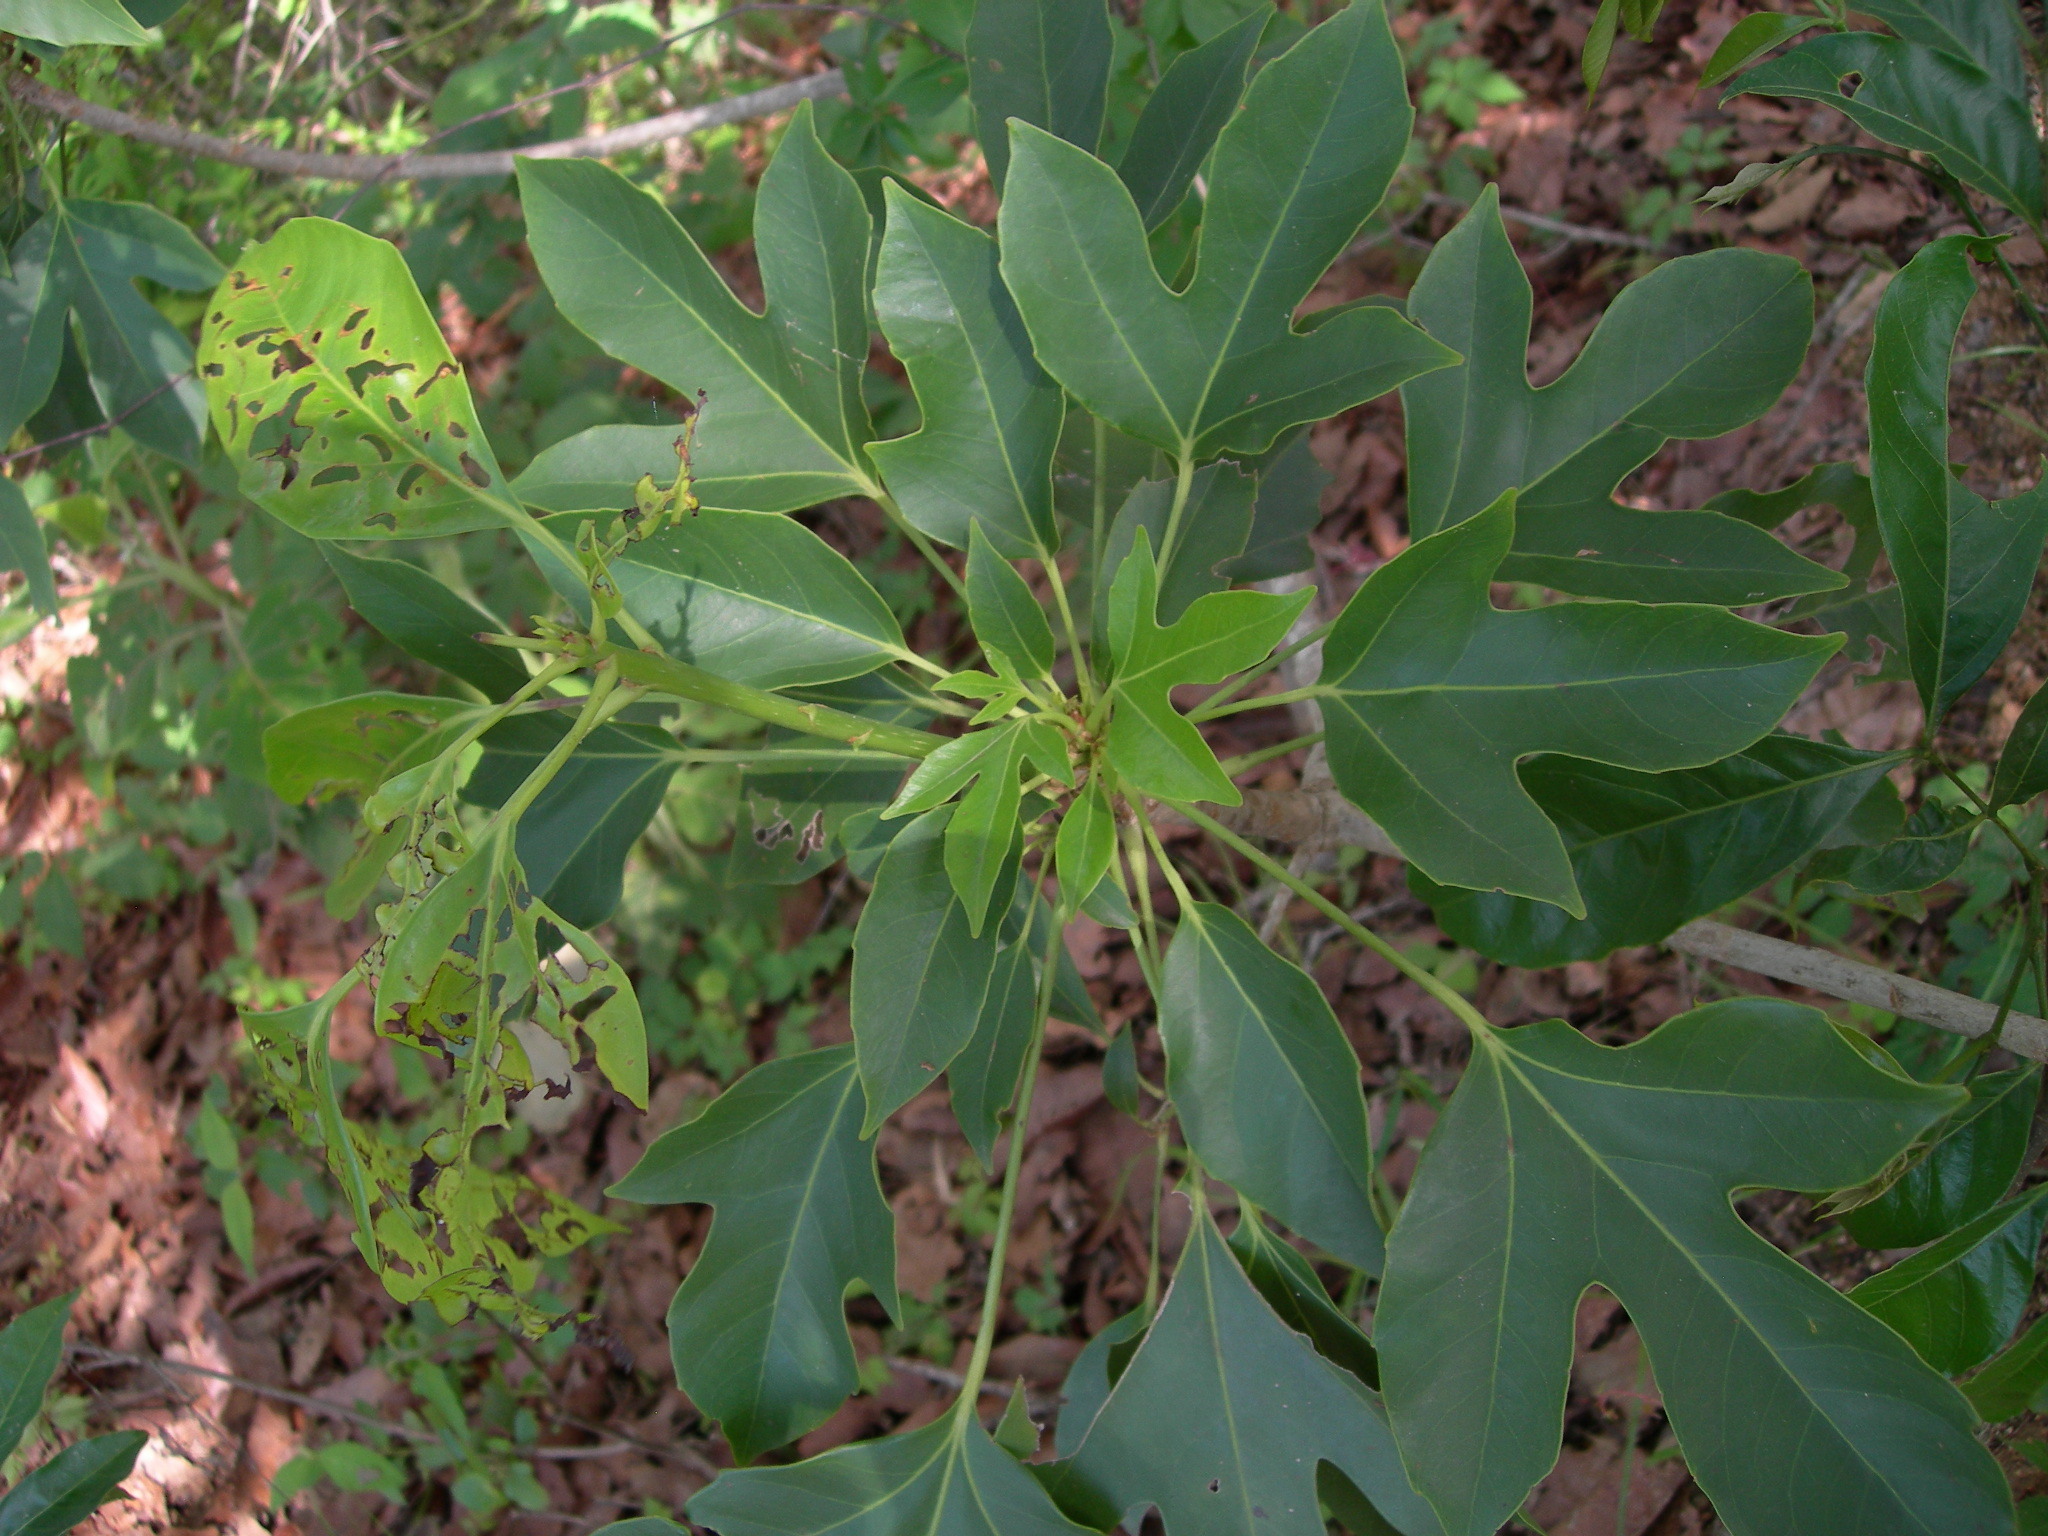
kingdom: Plantae
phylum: Tracheophyta
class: Magnoliopsida
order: Apiales
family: Araliaceae
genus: Dendropanax
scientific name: Dendropanax latilobus
